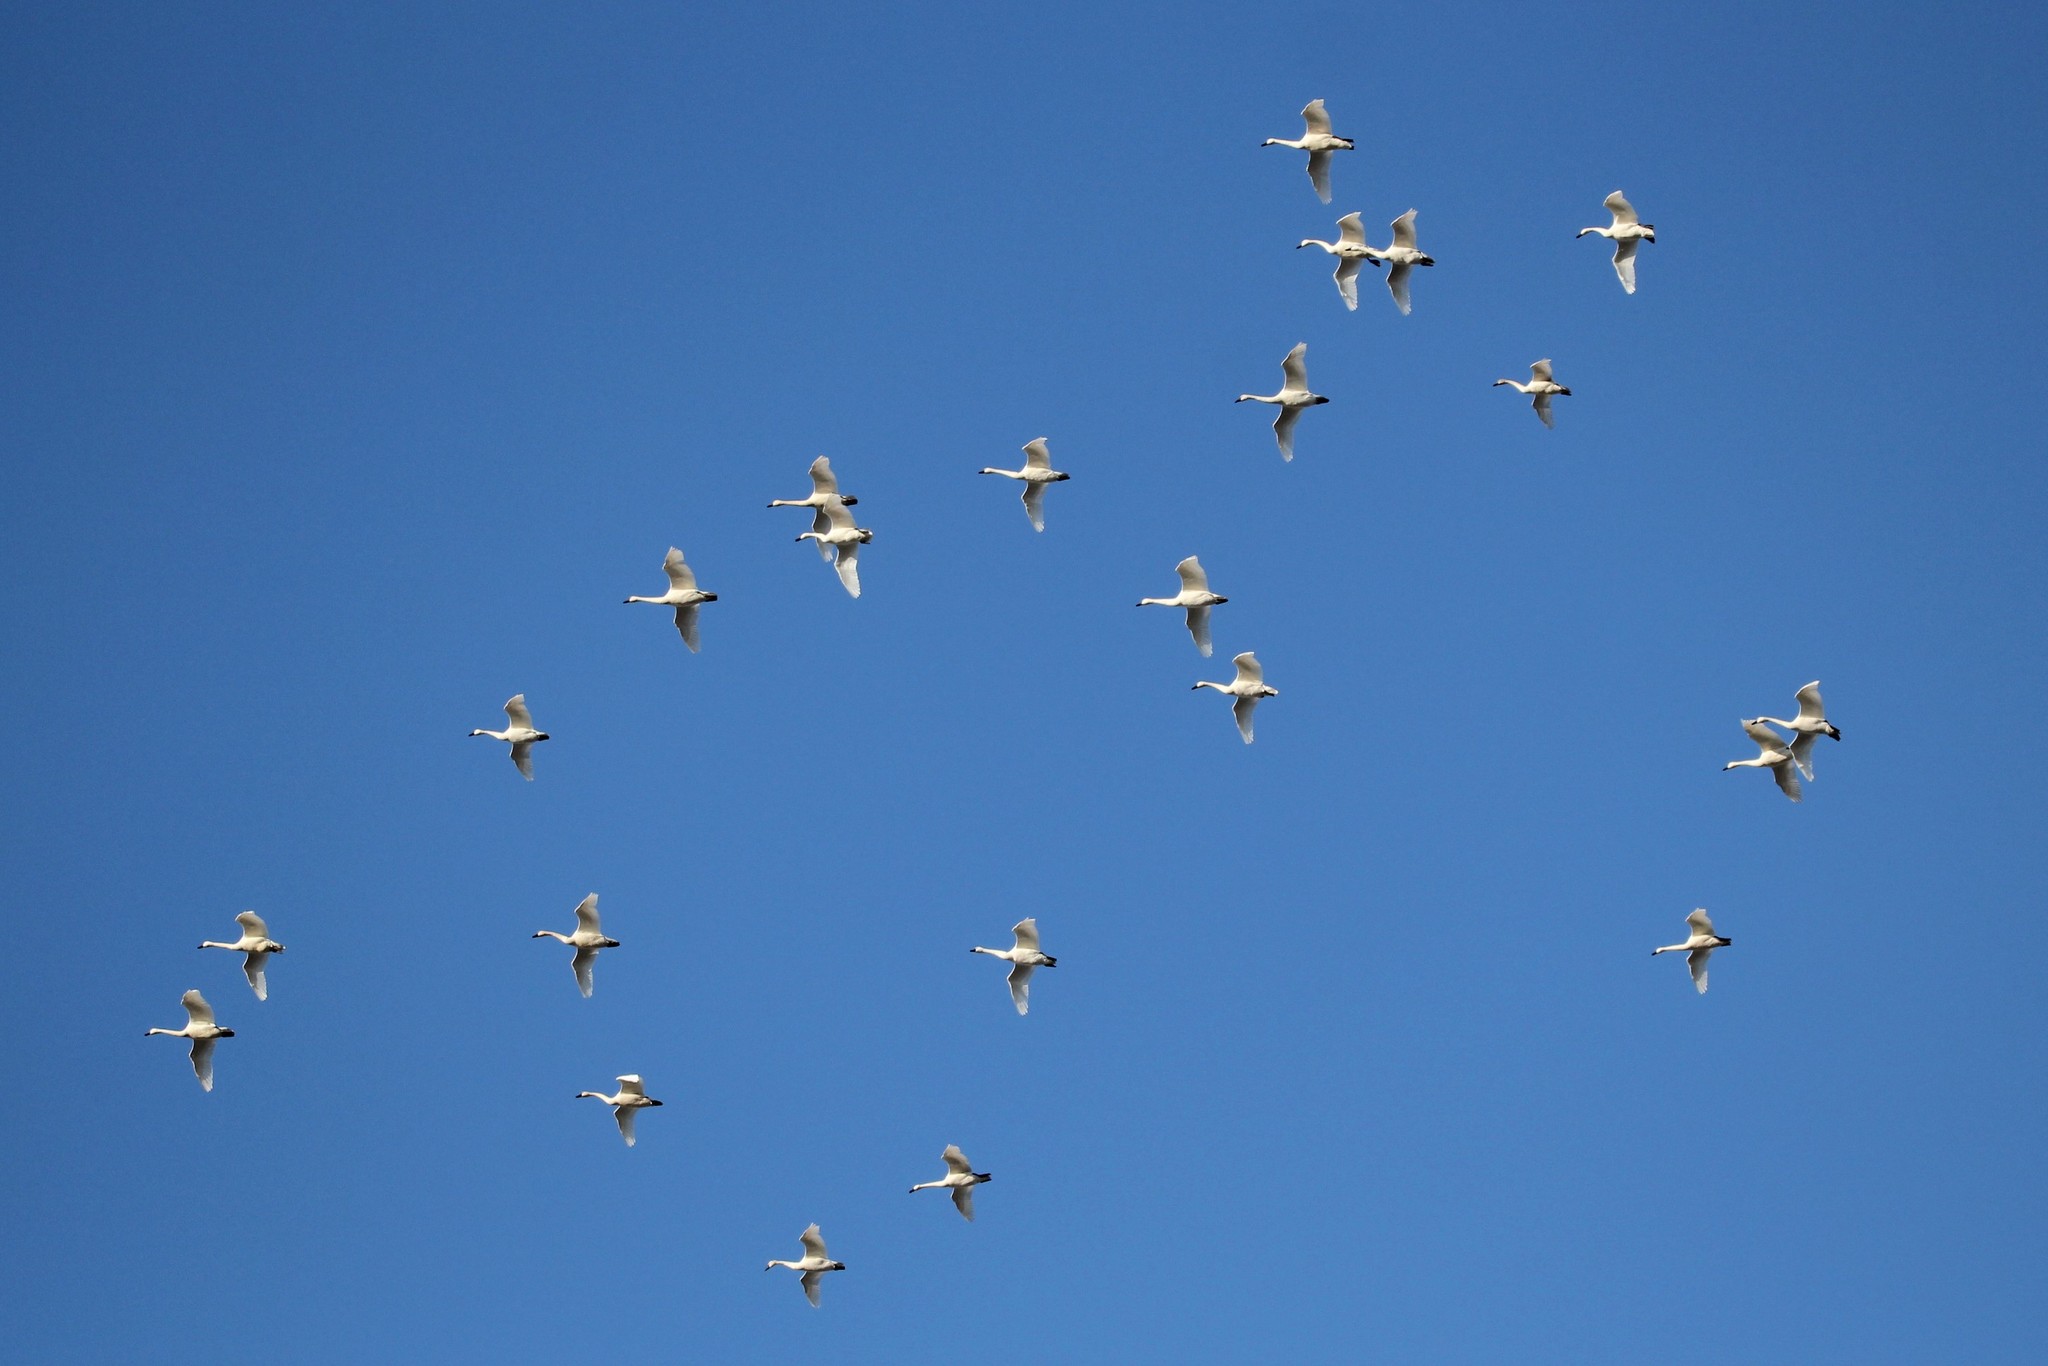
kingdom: Animalia
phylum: Chordata
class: Aves
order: Anseriformes
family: Anatidae
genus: Cygnus
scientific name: Cygnus columbianus
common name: Tundra swan
